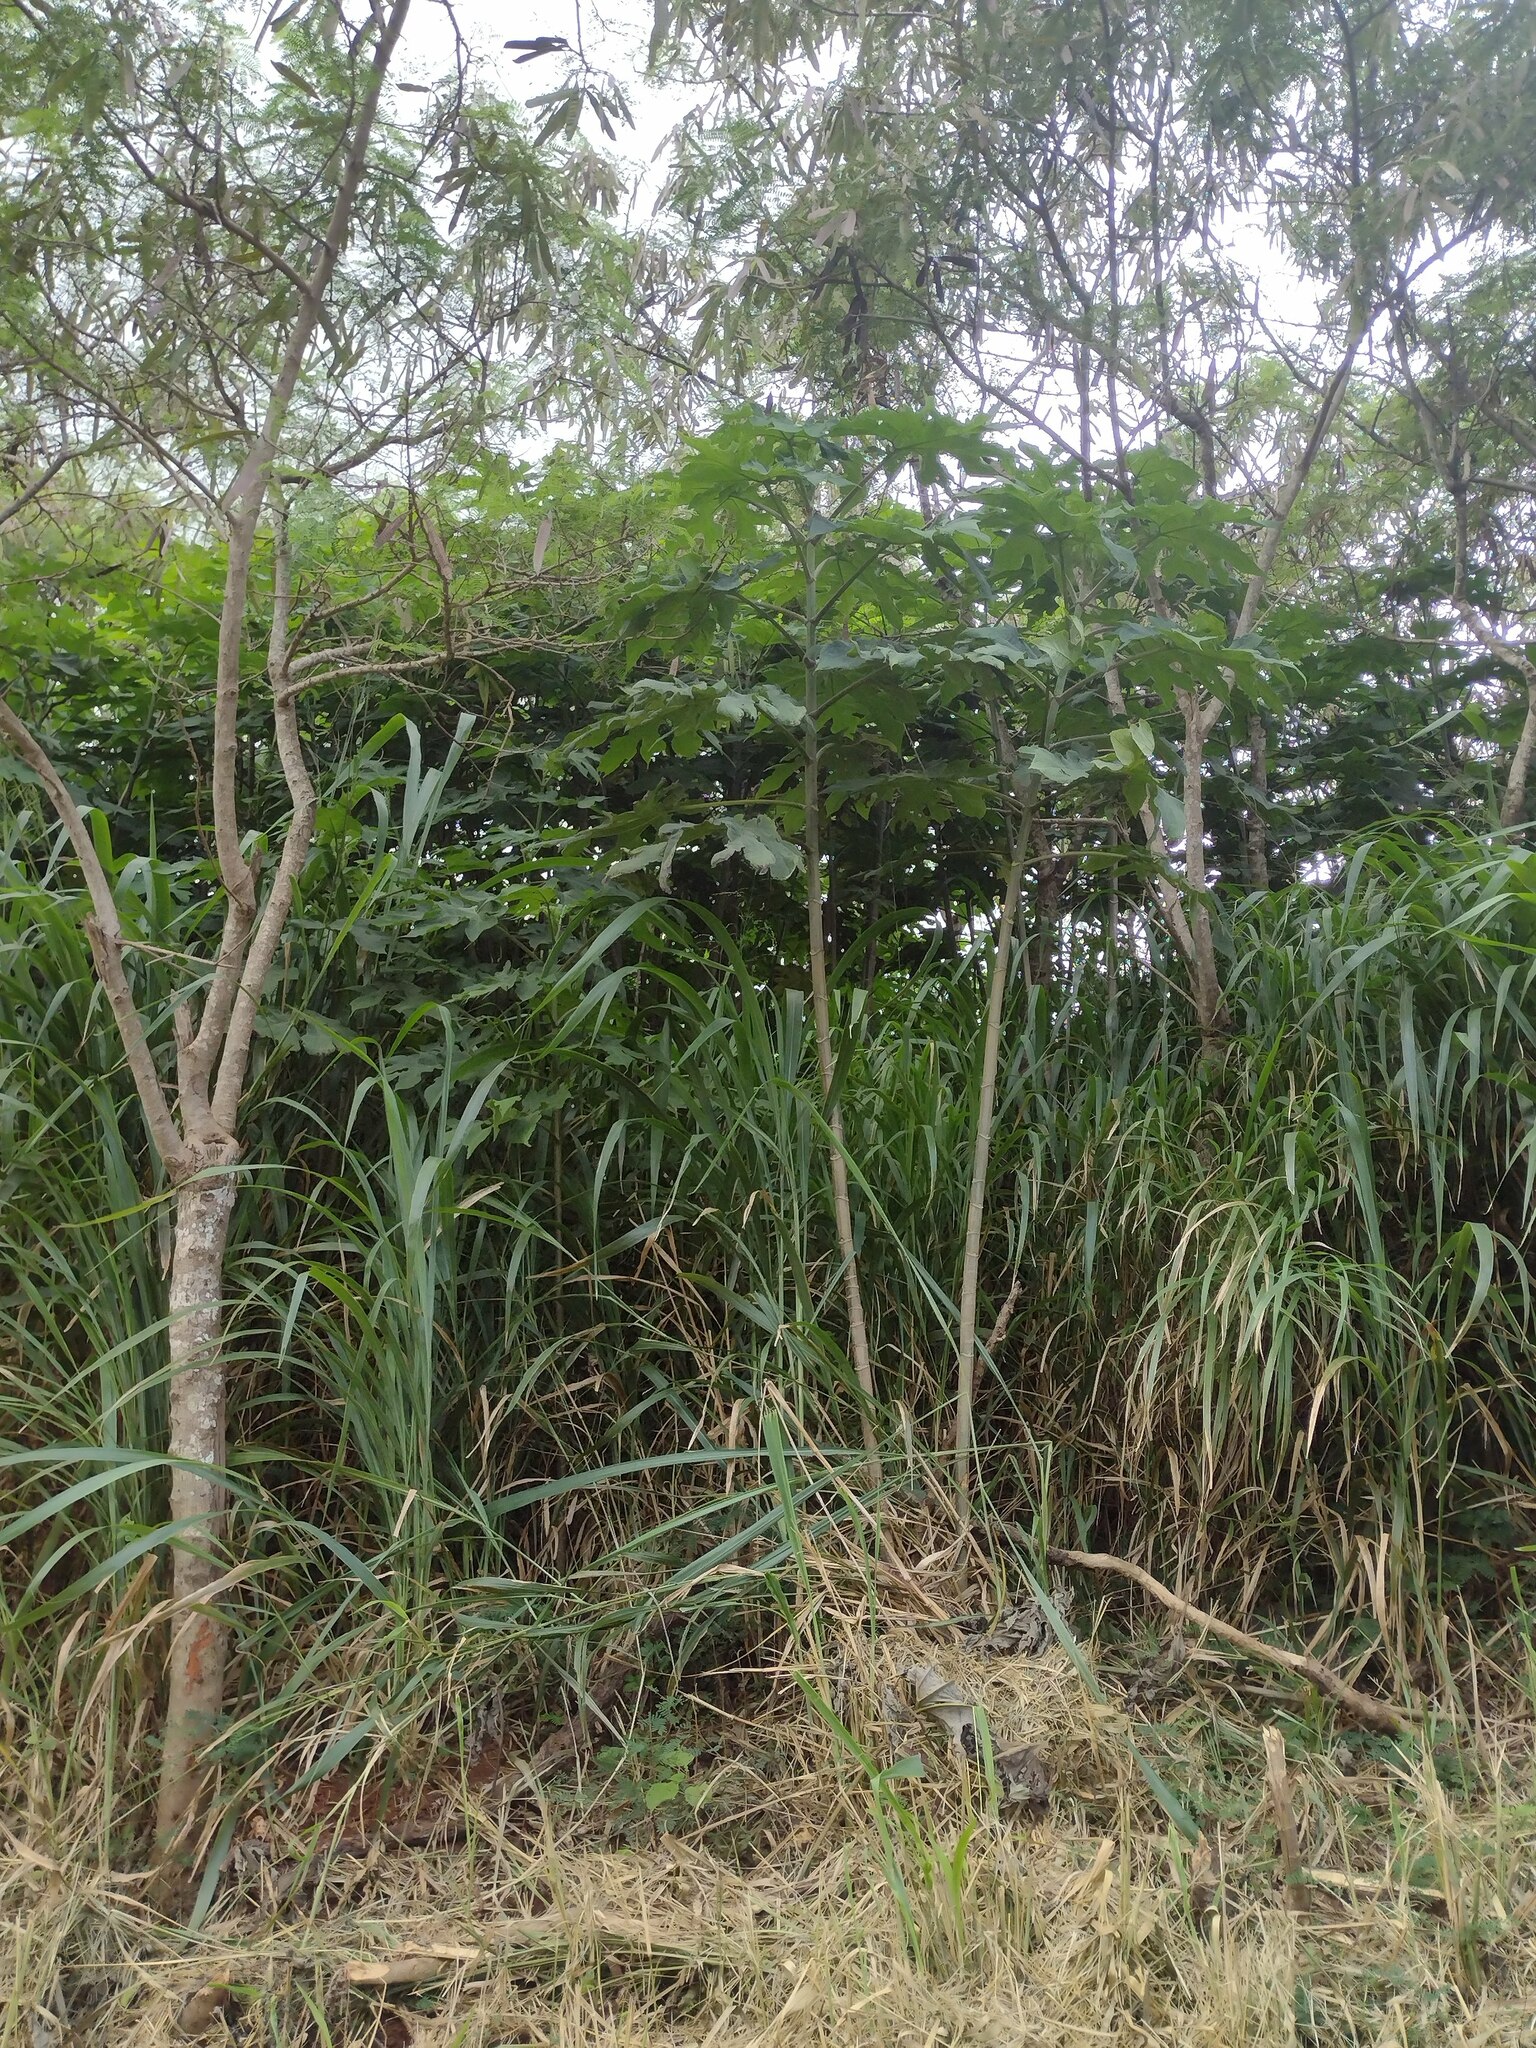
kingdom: Plantae
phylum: Tracheophyta
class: Magnoliopsida
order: Asterales
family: Asteraceae
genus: Montanoa
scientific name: Montanoa hibiscifolia
